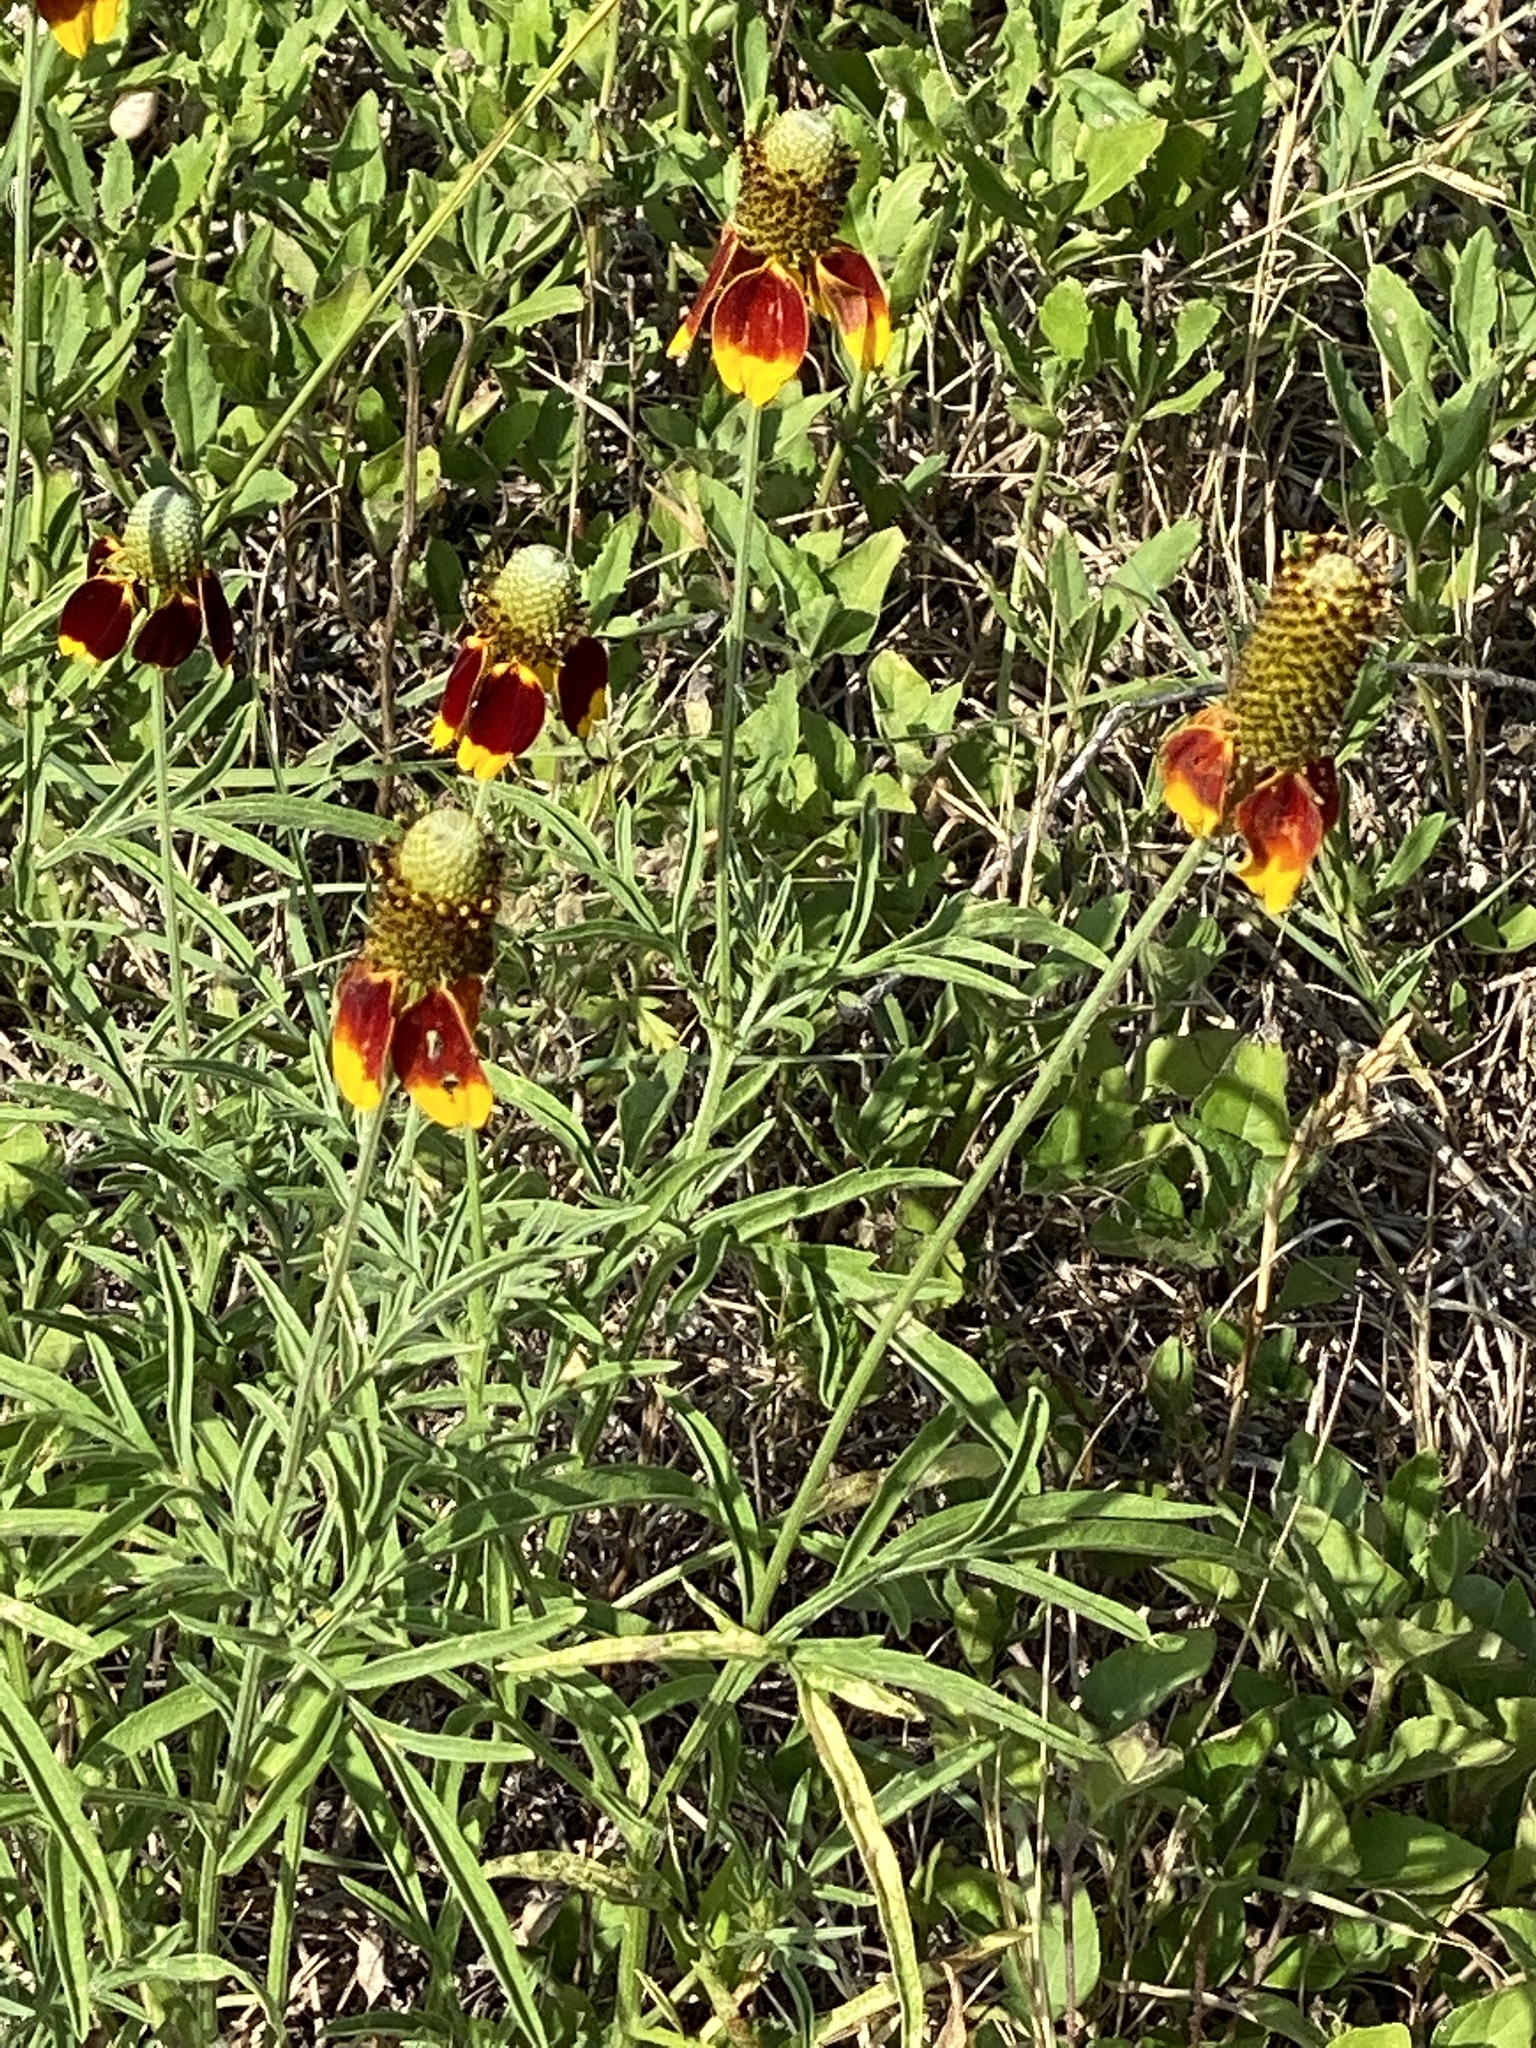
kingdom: Plantae
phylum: Tracheophyta
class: Magnoliopsida
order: Asterales
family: Asteraceae
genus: Ratibida
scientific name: Ratibida columnifera
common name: Prairie coneflower
